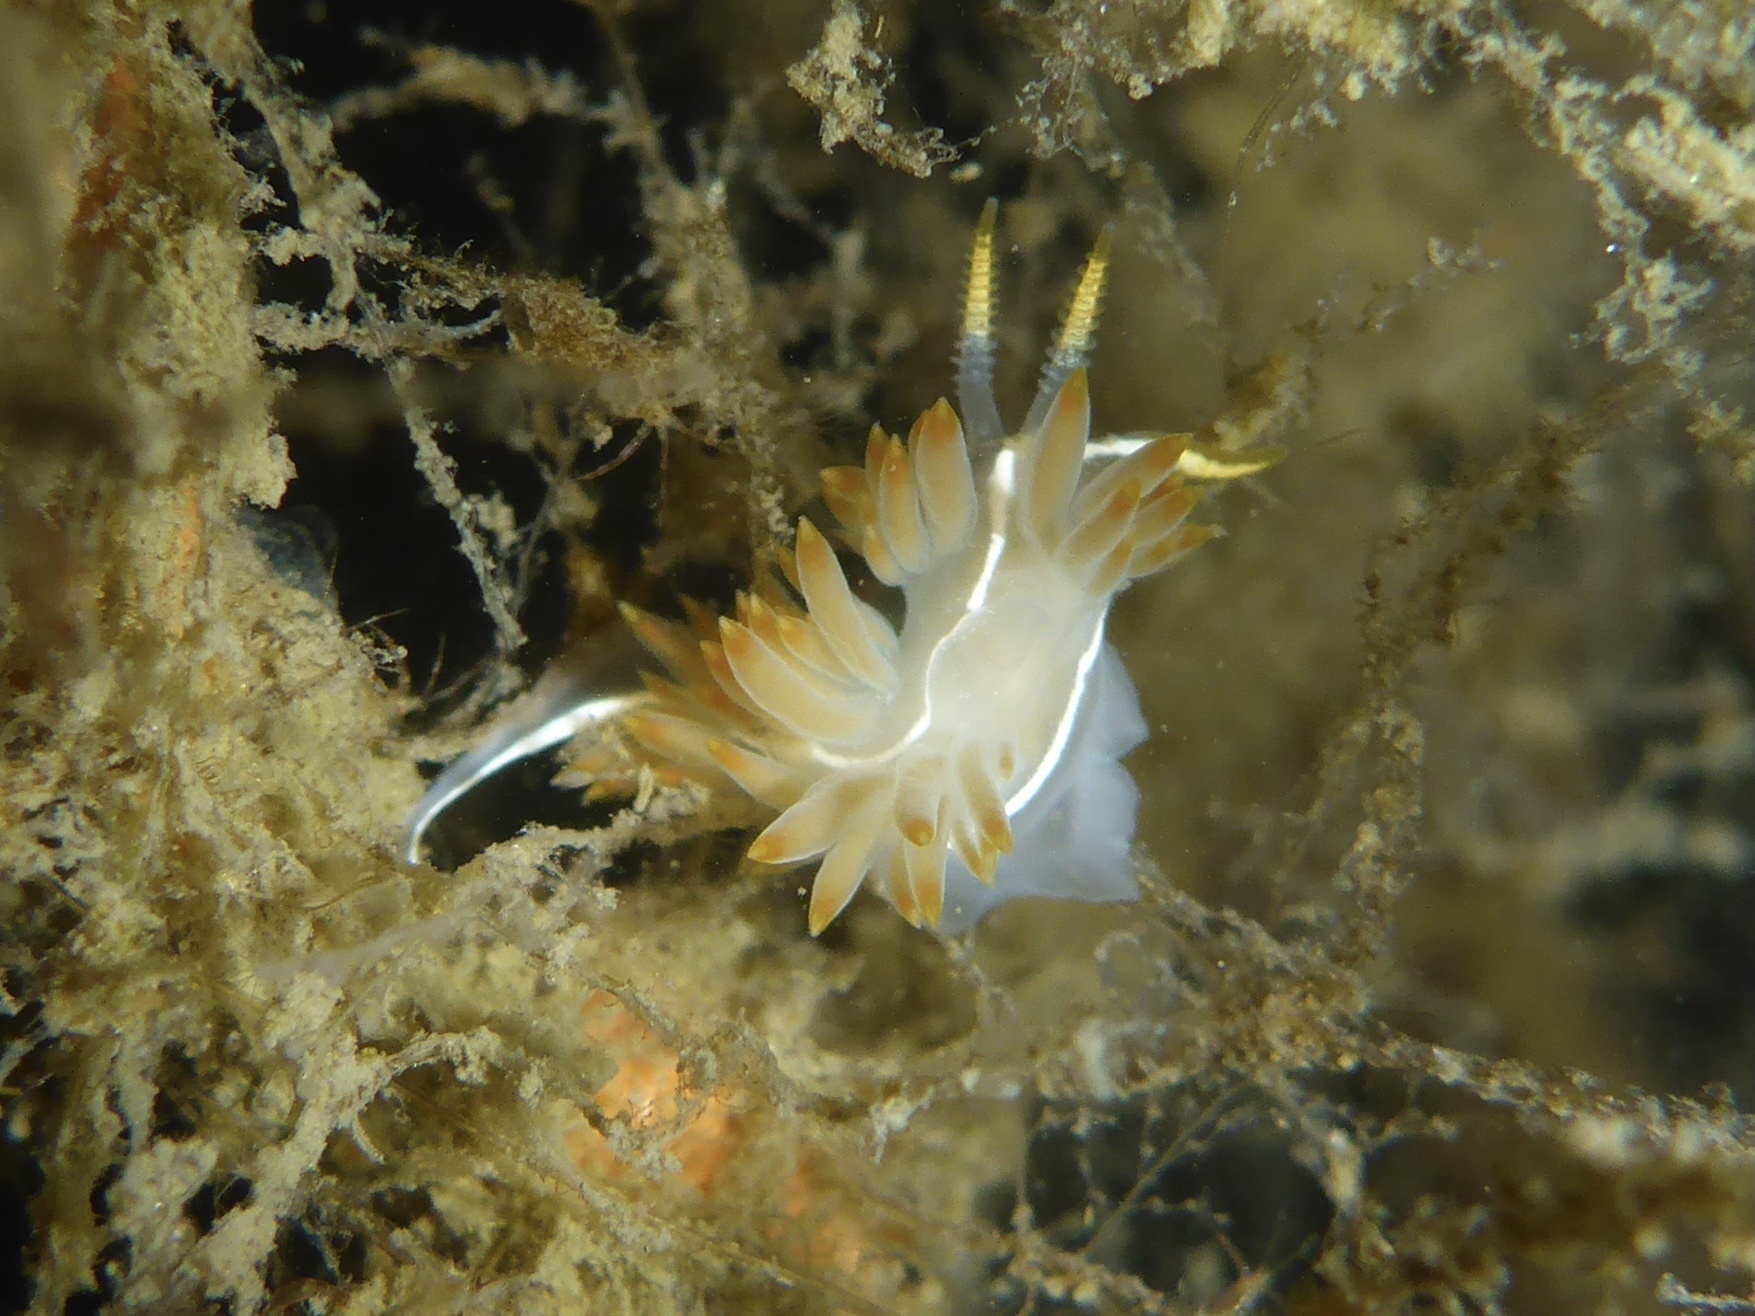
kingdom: Animalia
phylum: Mollusca
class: Gastropoda
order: Nudibranchia
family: Coryphellidae
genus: Coryphella
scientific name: Coryphella trilineata
